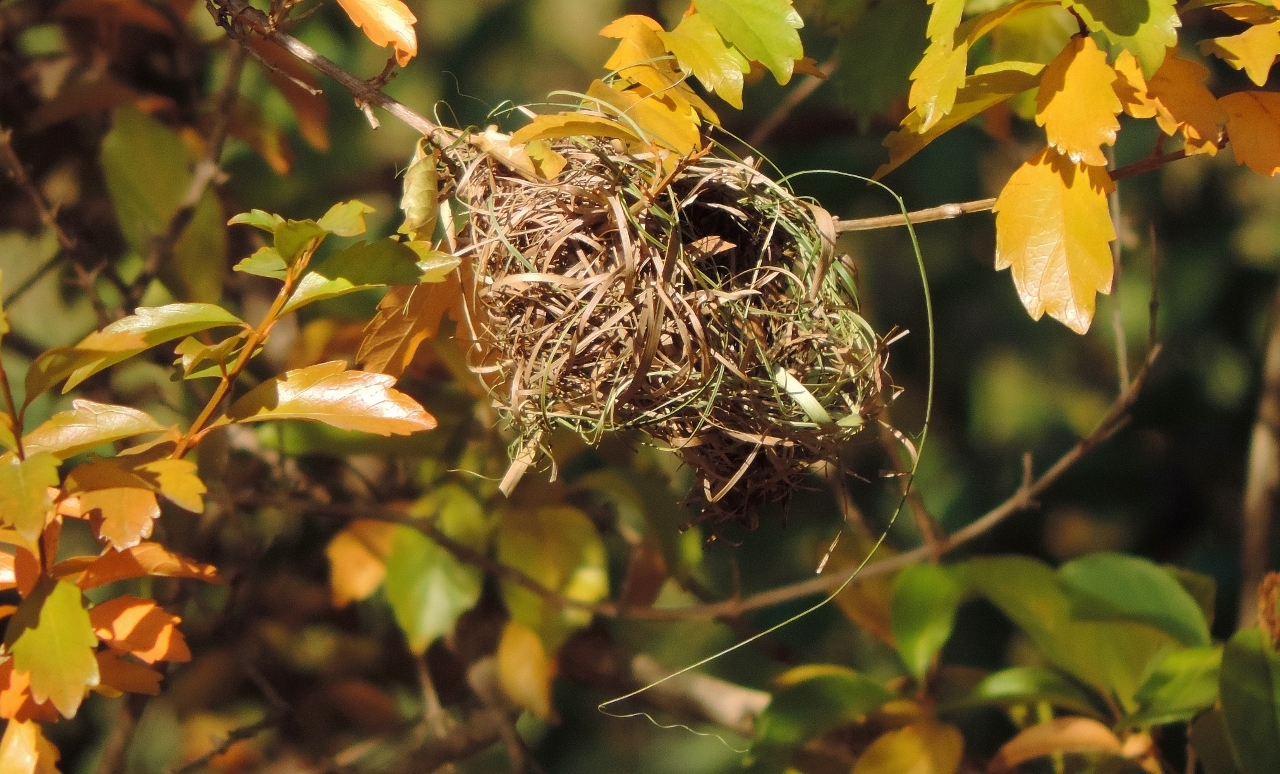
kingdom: Animalia
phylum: Chordata
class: Aves
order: Passeriformes
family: Ploceidae
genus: Ploceus
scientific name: Ploceus velatus
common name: Southern masked weaver
